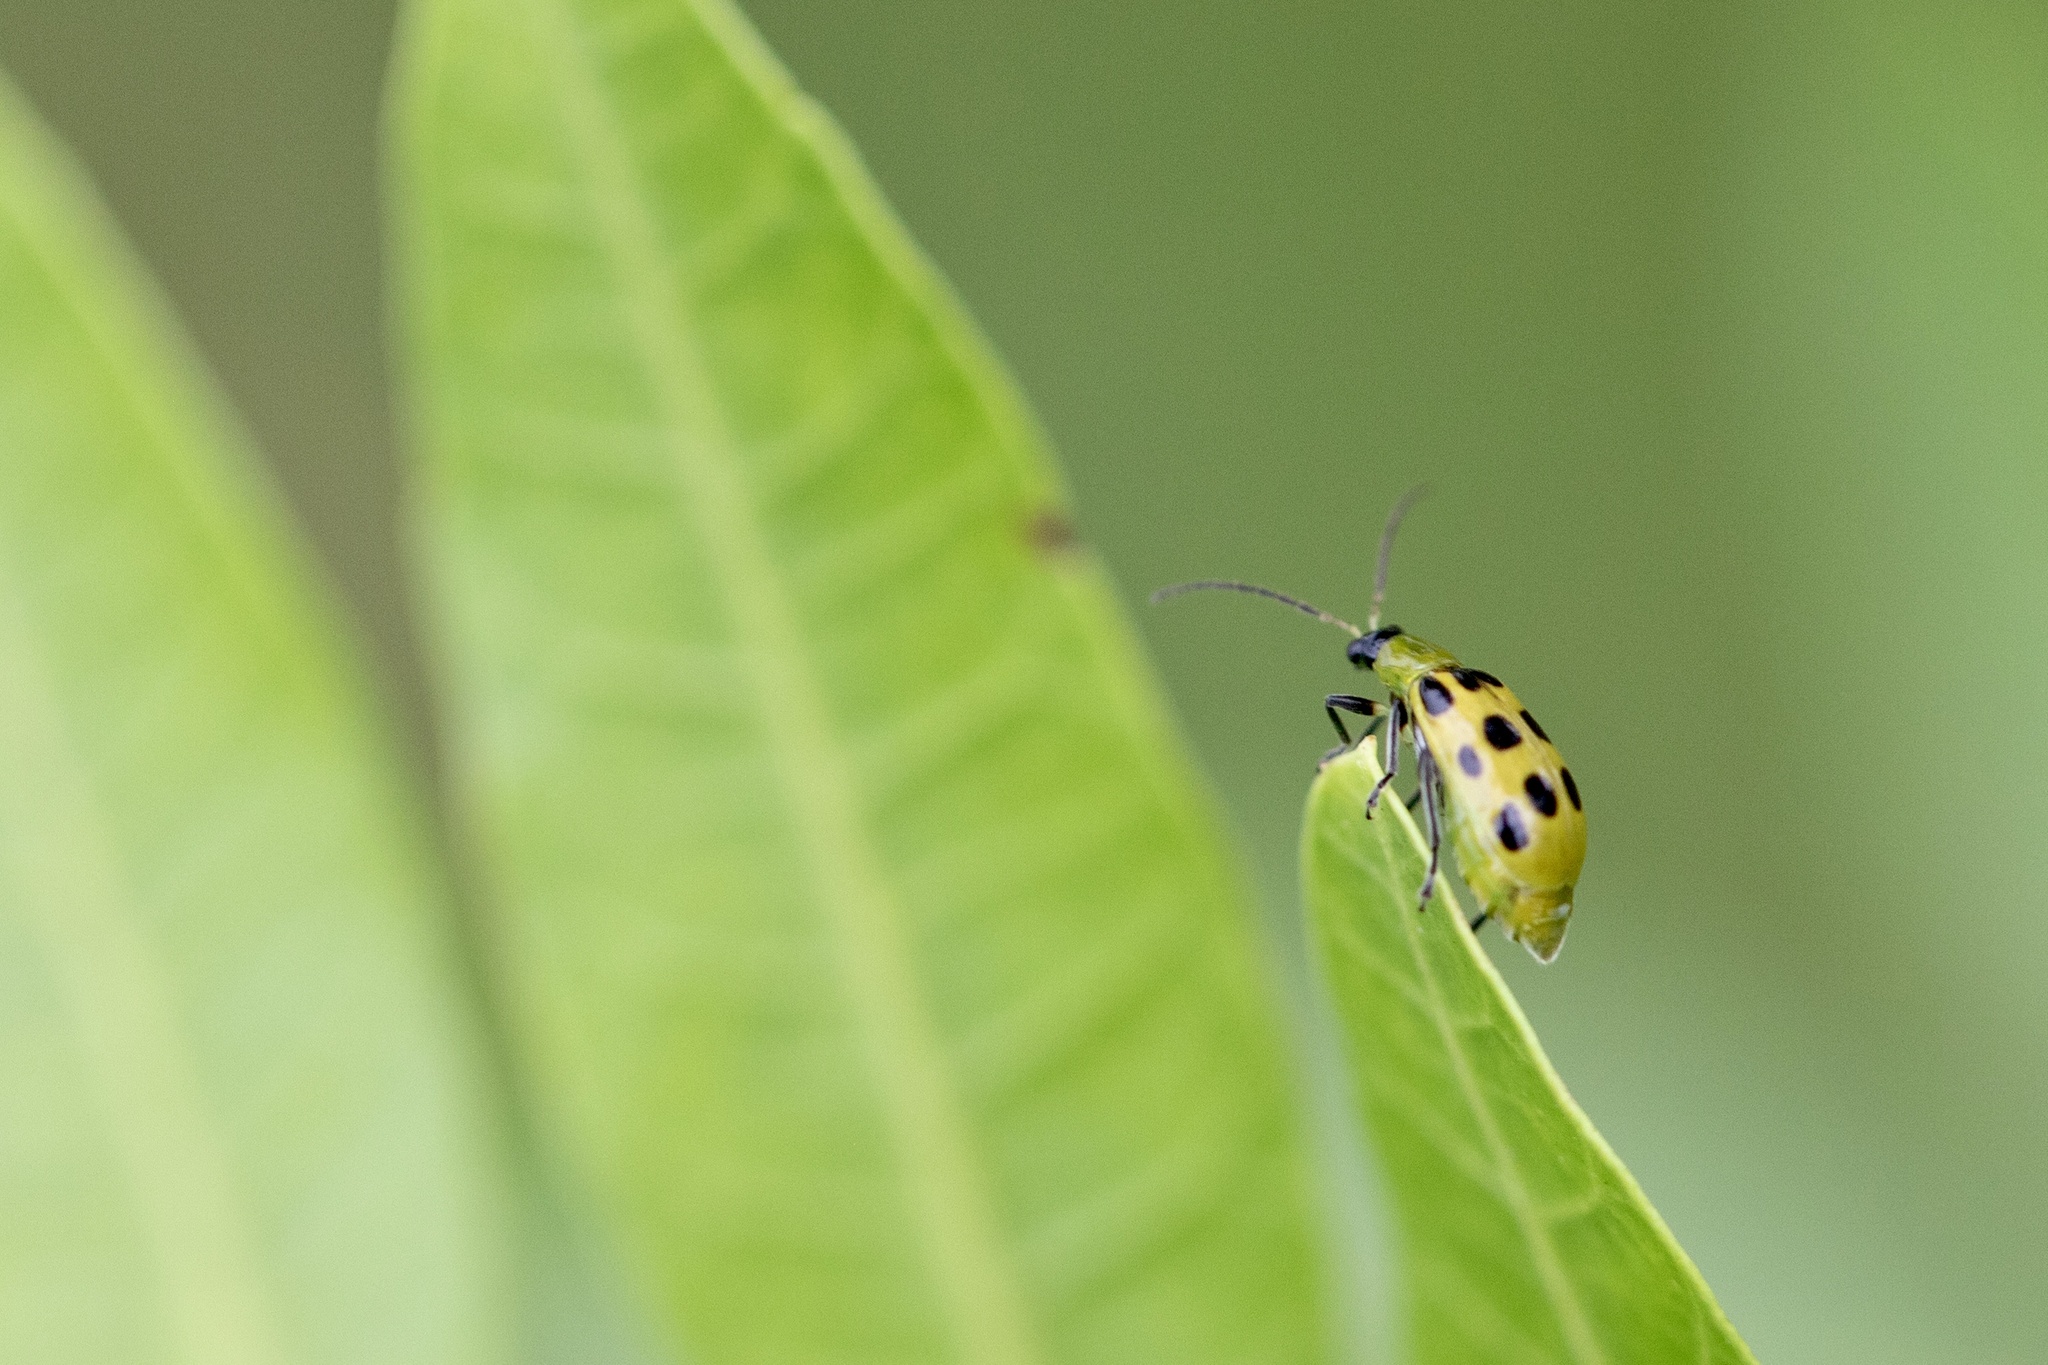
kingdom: Animalia
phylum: Arthropoda
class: Insecta
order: Coleoptera
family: Chrysomelidae
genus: Diabrotica
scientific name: Diabrotica undecimpunctata
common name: Spotted cucumber beetle
